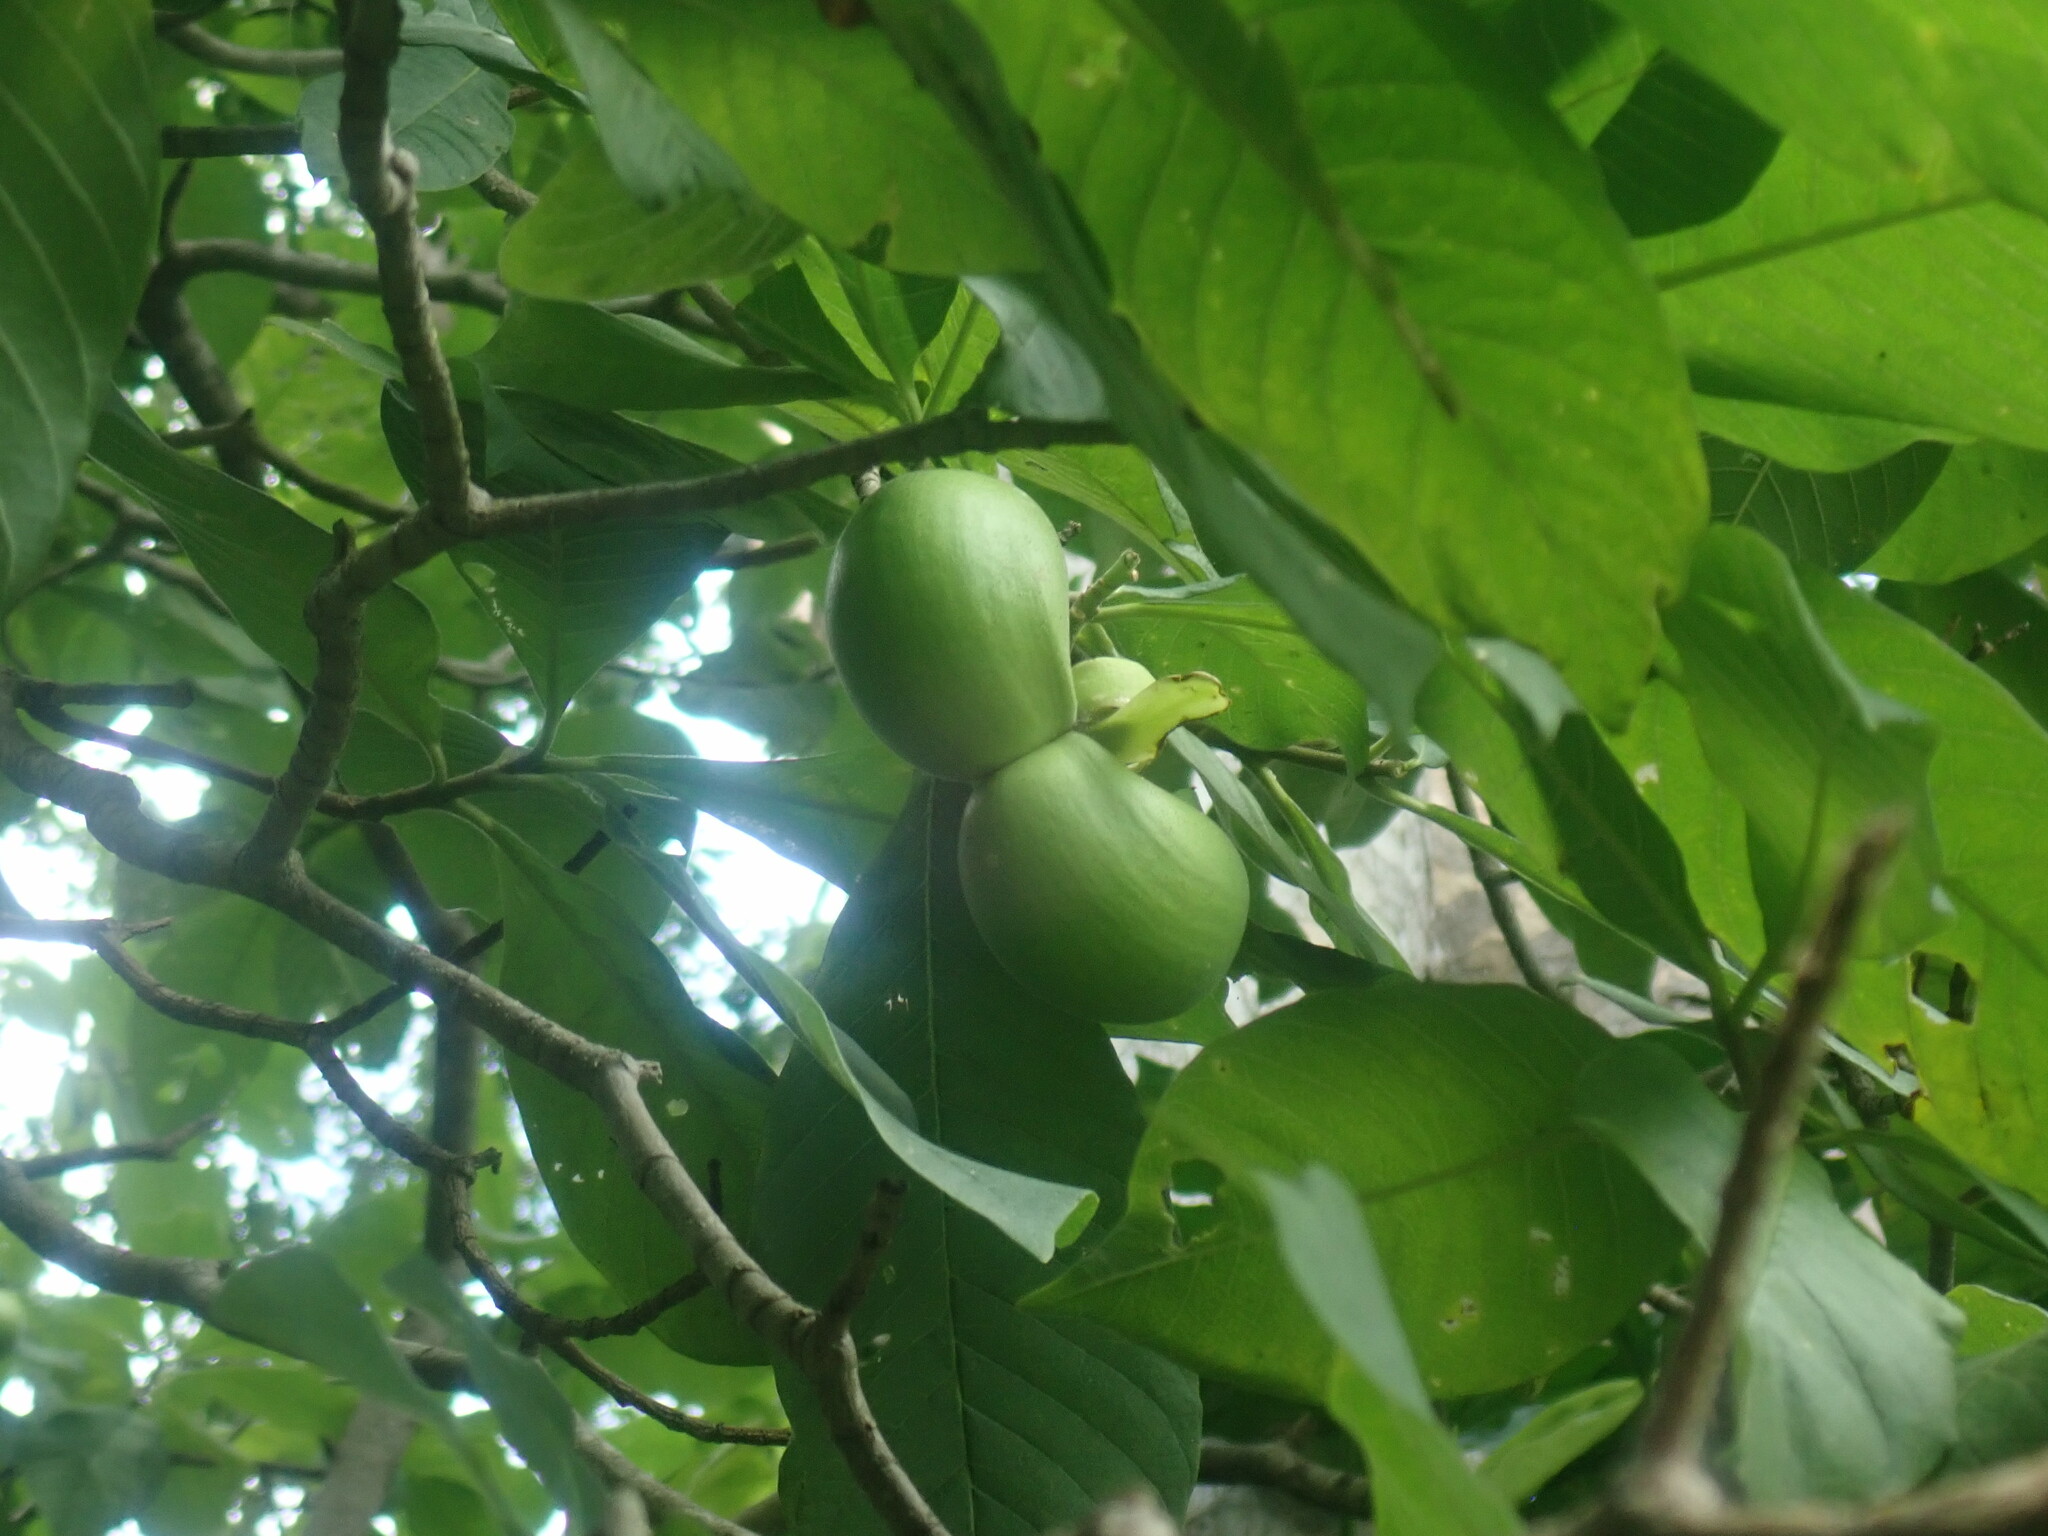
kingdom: Plantae
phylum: Tracheophyta
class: Magnoliopsida
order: Gentianales
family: Apocynaceae
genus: Tabernaemontana
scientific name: Tabernaemontana glabra
